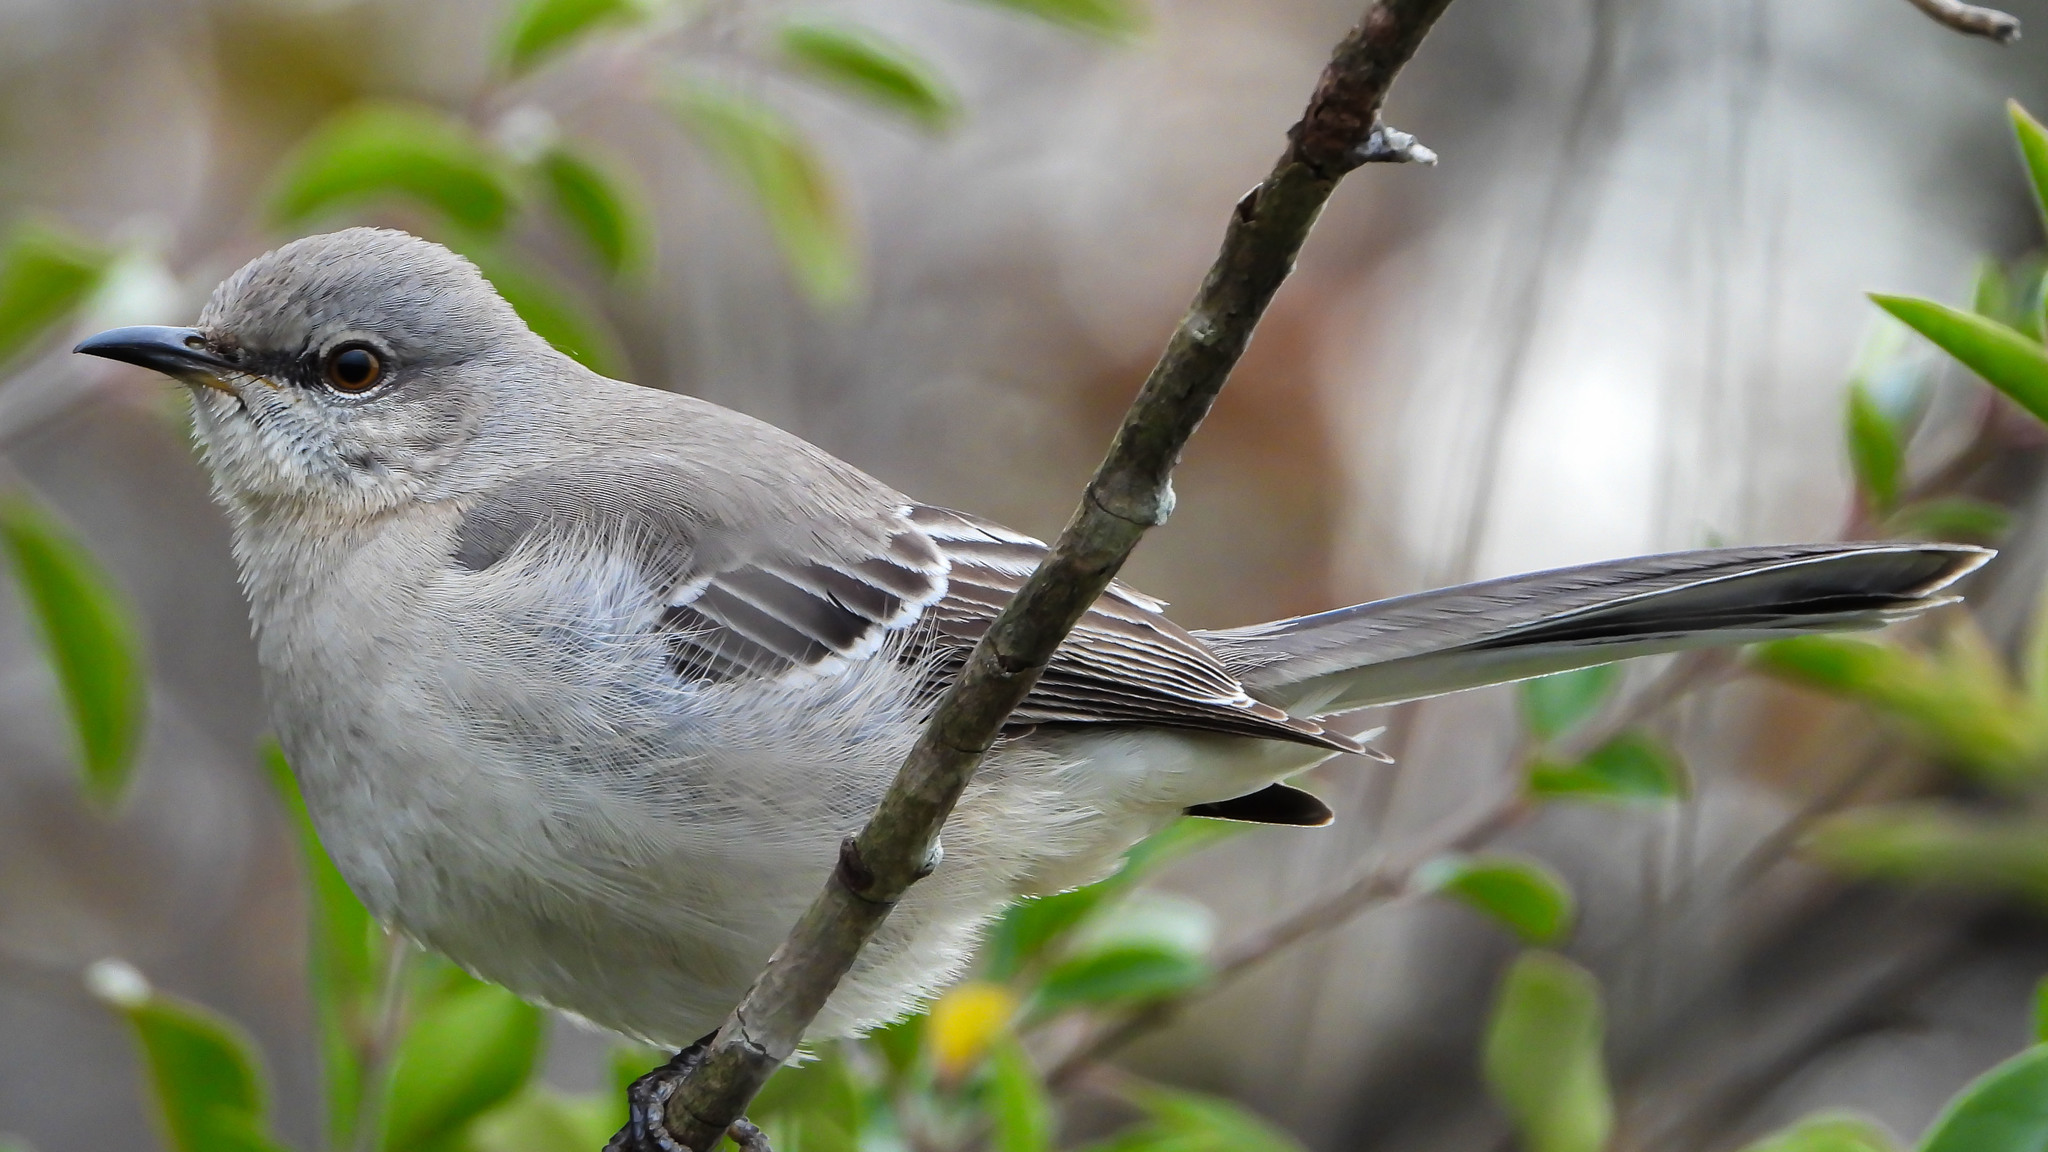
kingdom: Animalia
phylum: Chordata
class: Aves
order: Passeriformes
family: Mimidae
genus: Mimus
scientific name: Mimus polyglottos
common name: Northern mockingbird
